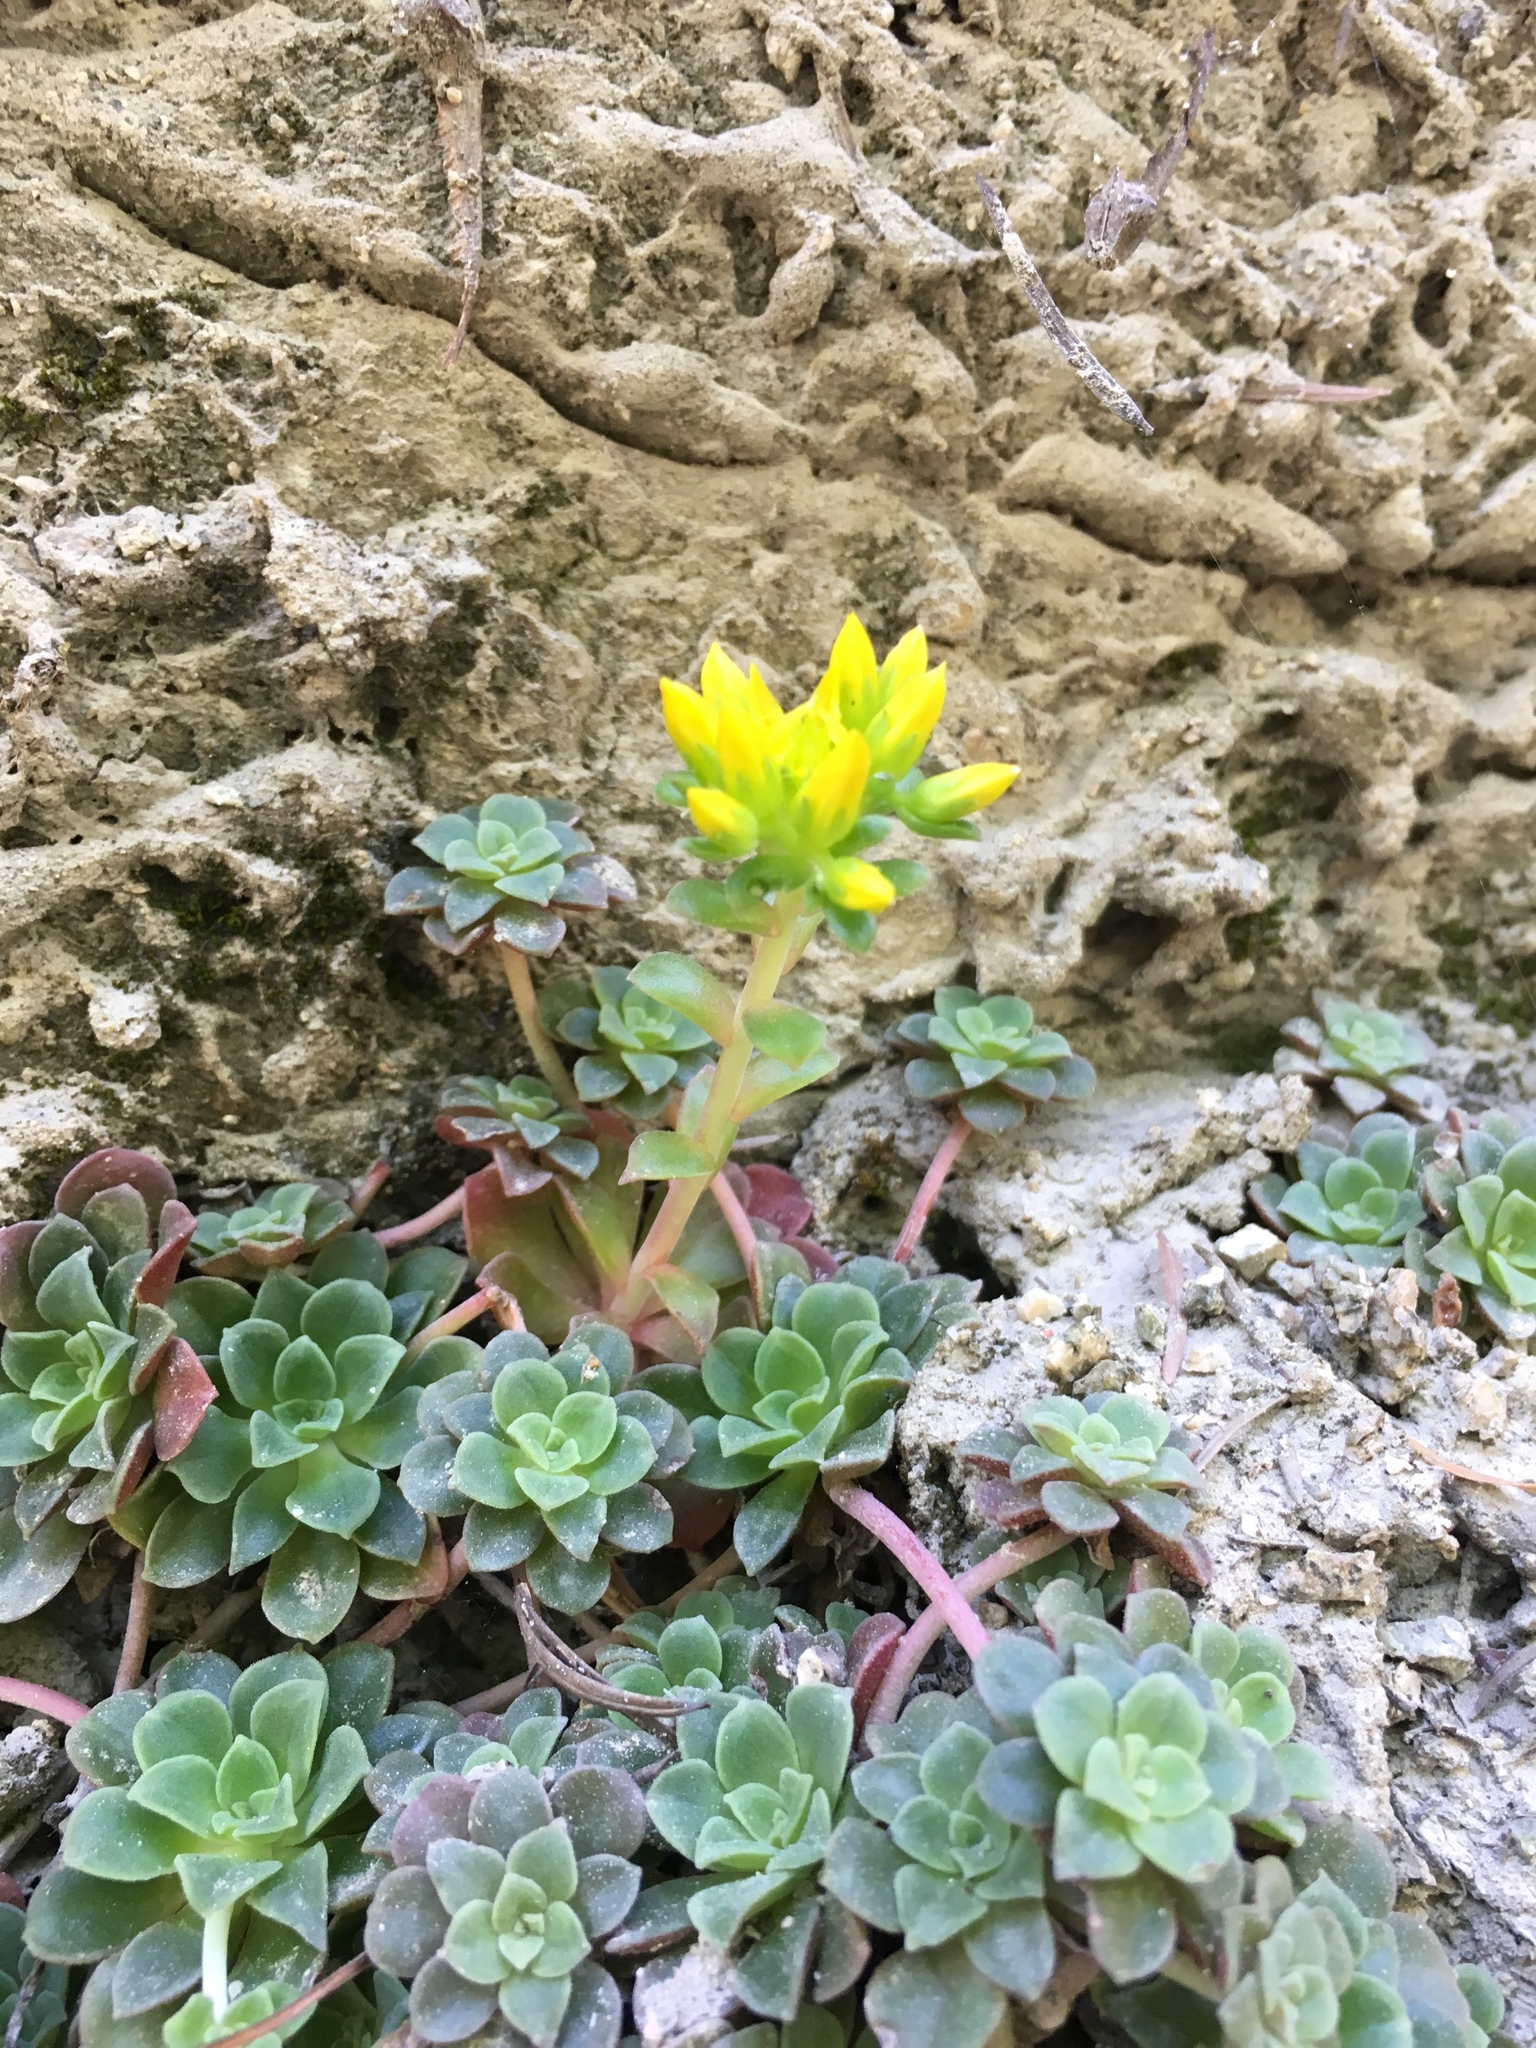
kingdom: Plantae
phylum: Tracheophyta
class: Magnoliopsida
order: Saxifragales
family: Crassulaceae
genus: Sedum
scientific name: Sedum spathulifolium
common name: Colorado stonecrop
